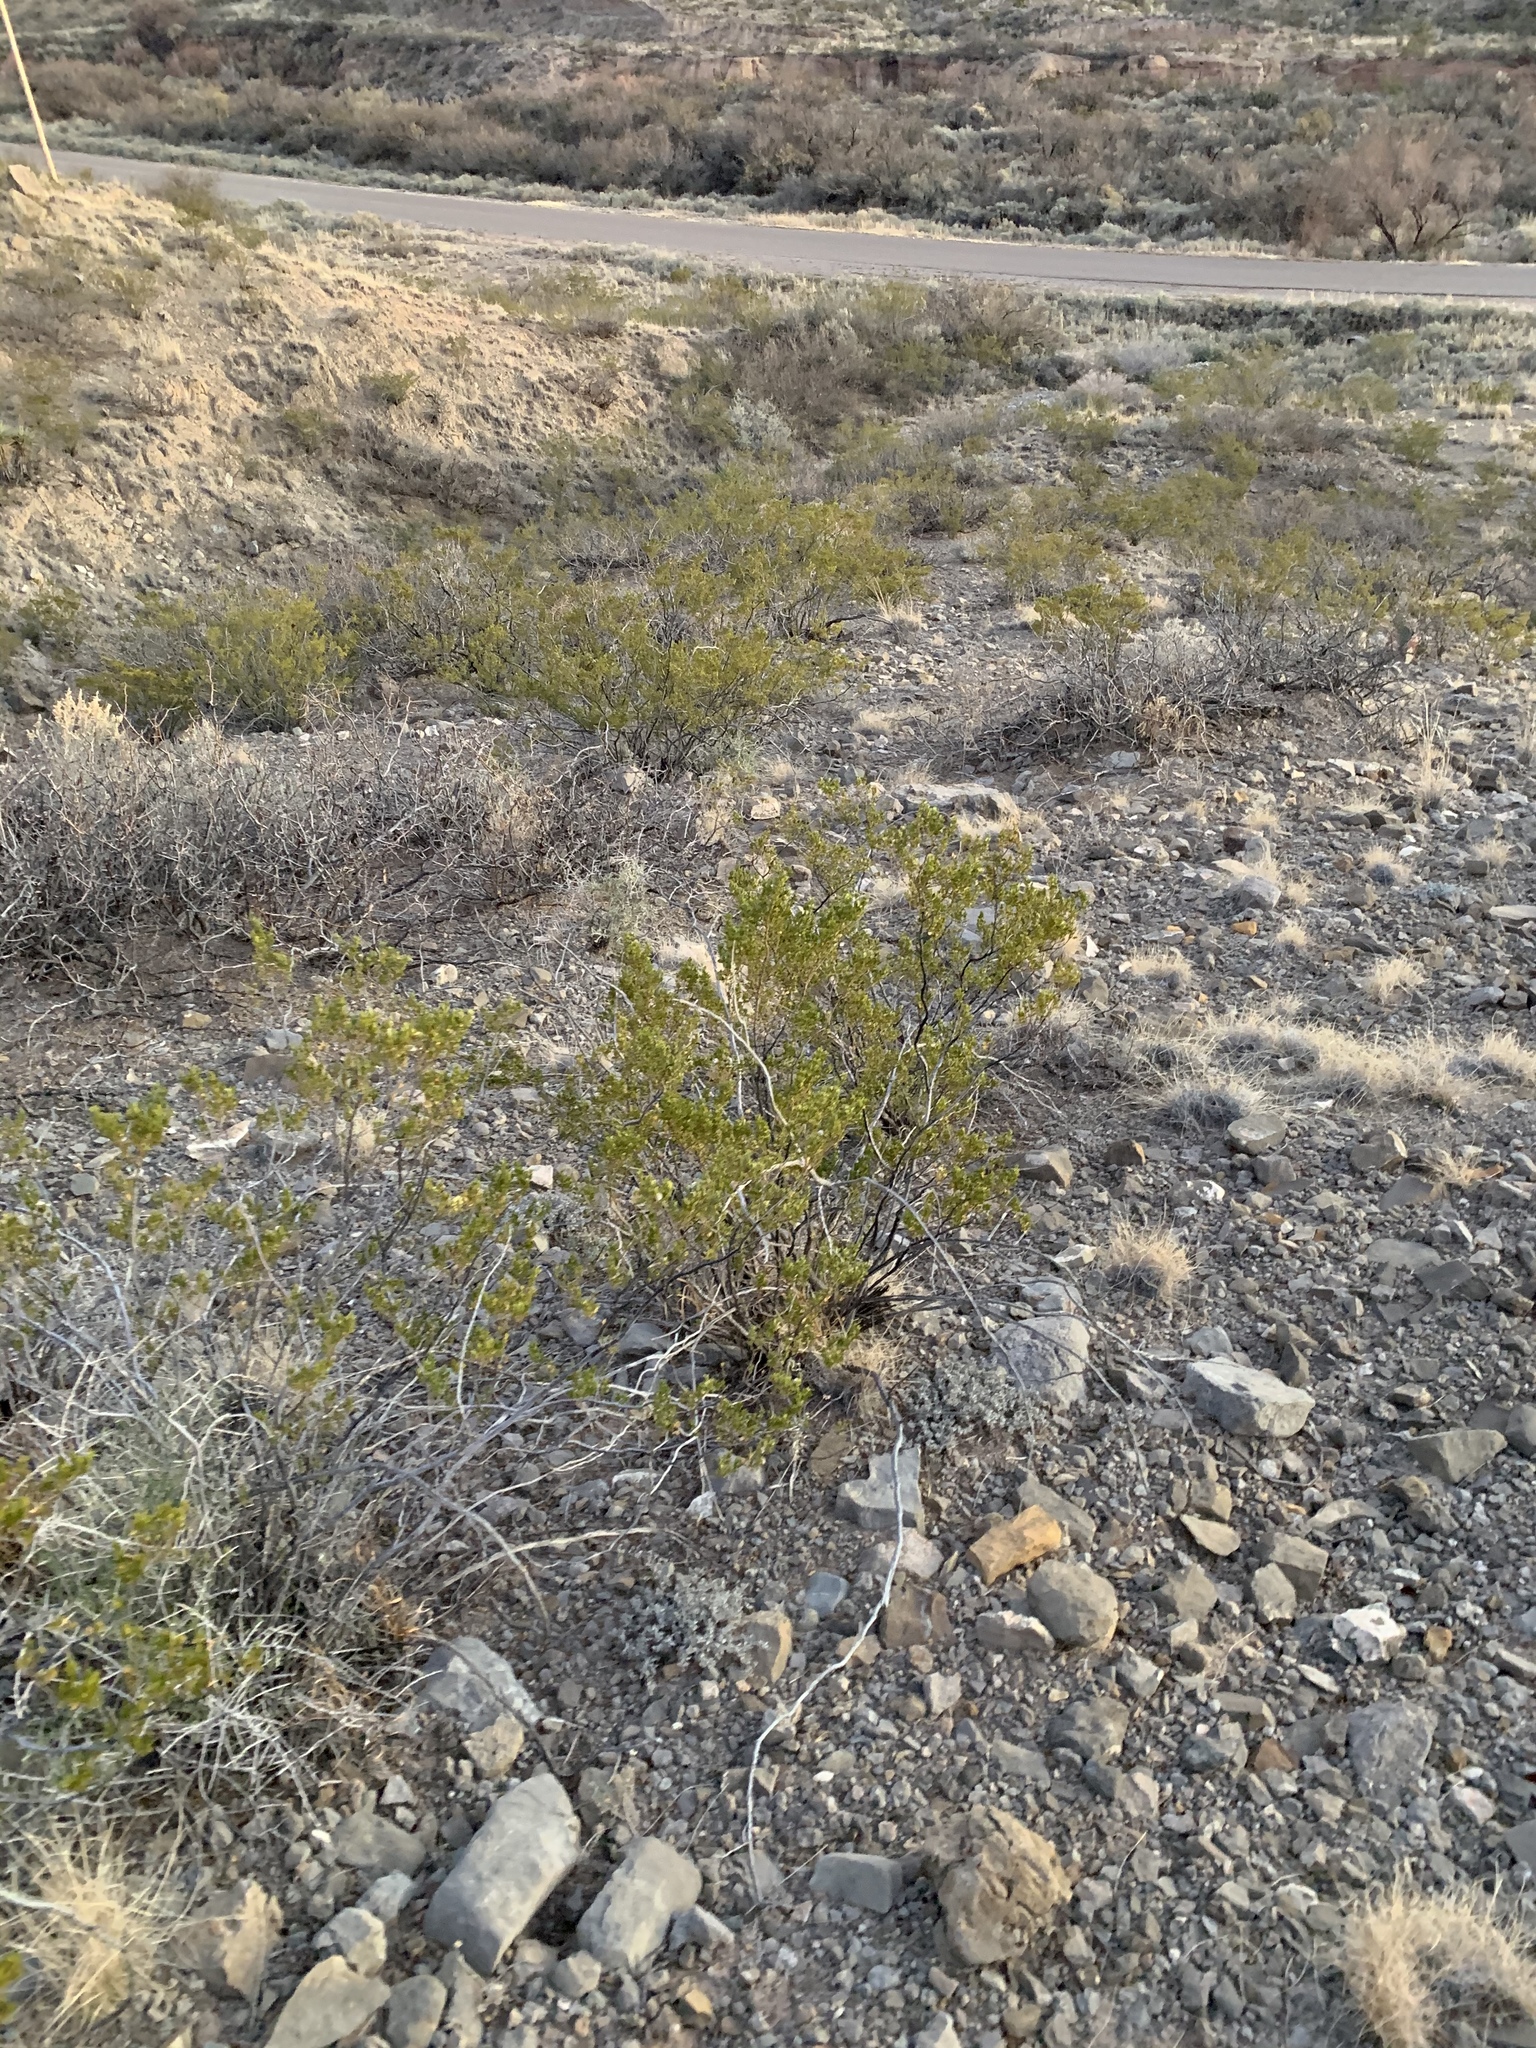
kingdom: Plantae
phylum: Tracheophyta
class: Magnoliopsida
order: Zygophyllales
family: Zygophyllaceae
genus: Larrea
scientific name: Larrea tridentata
